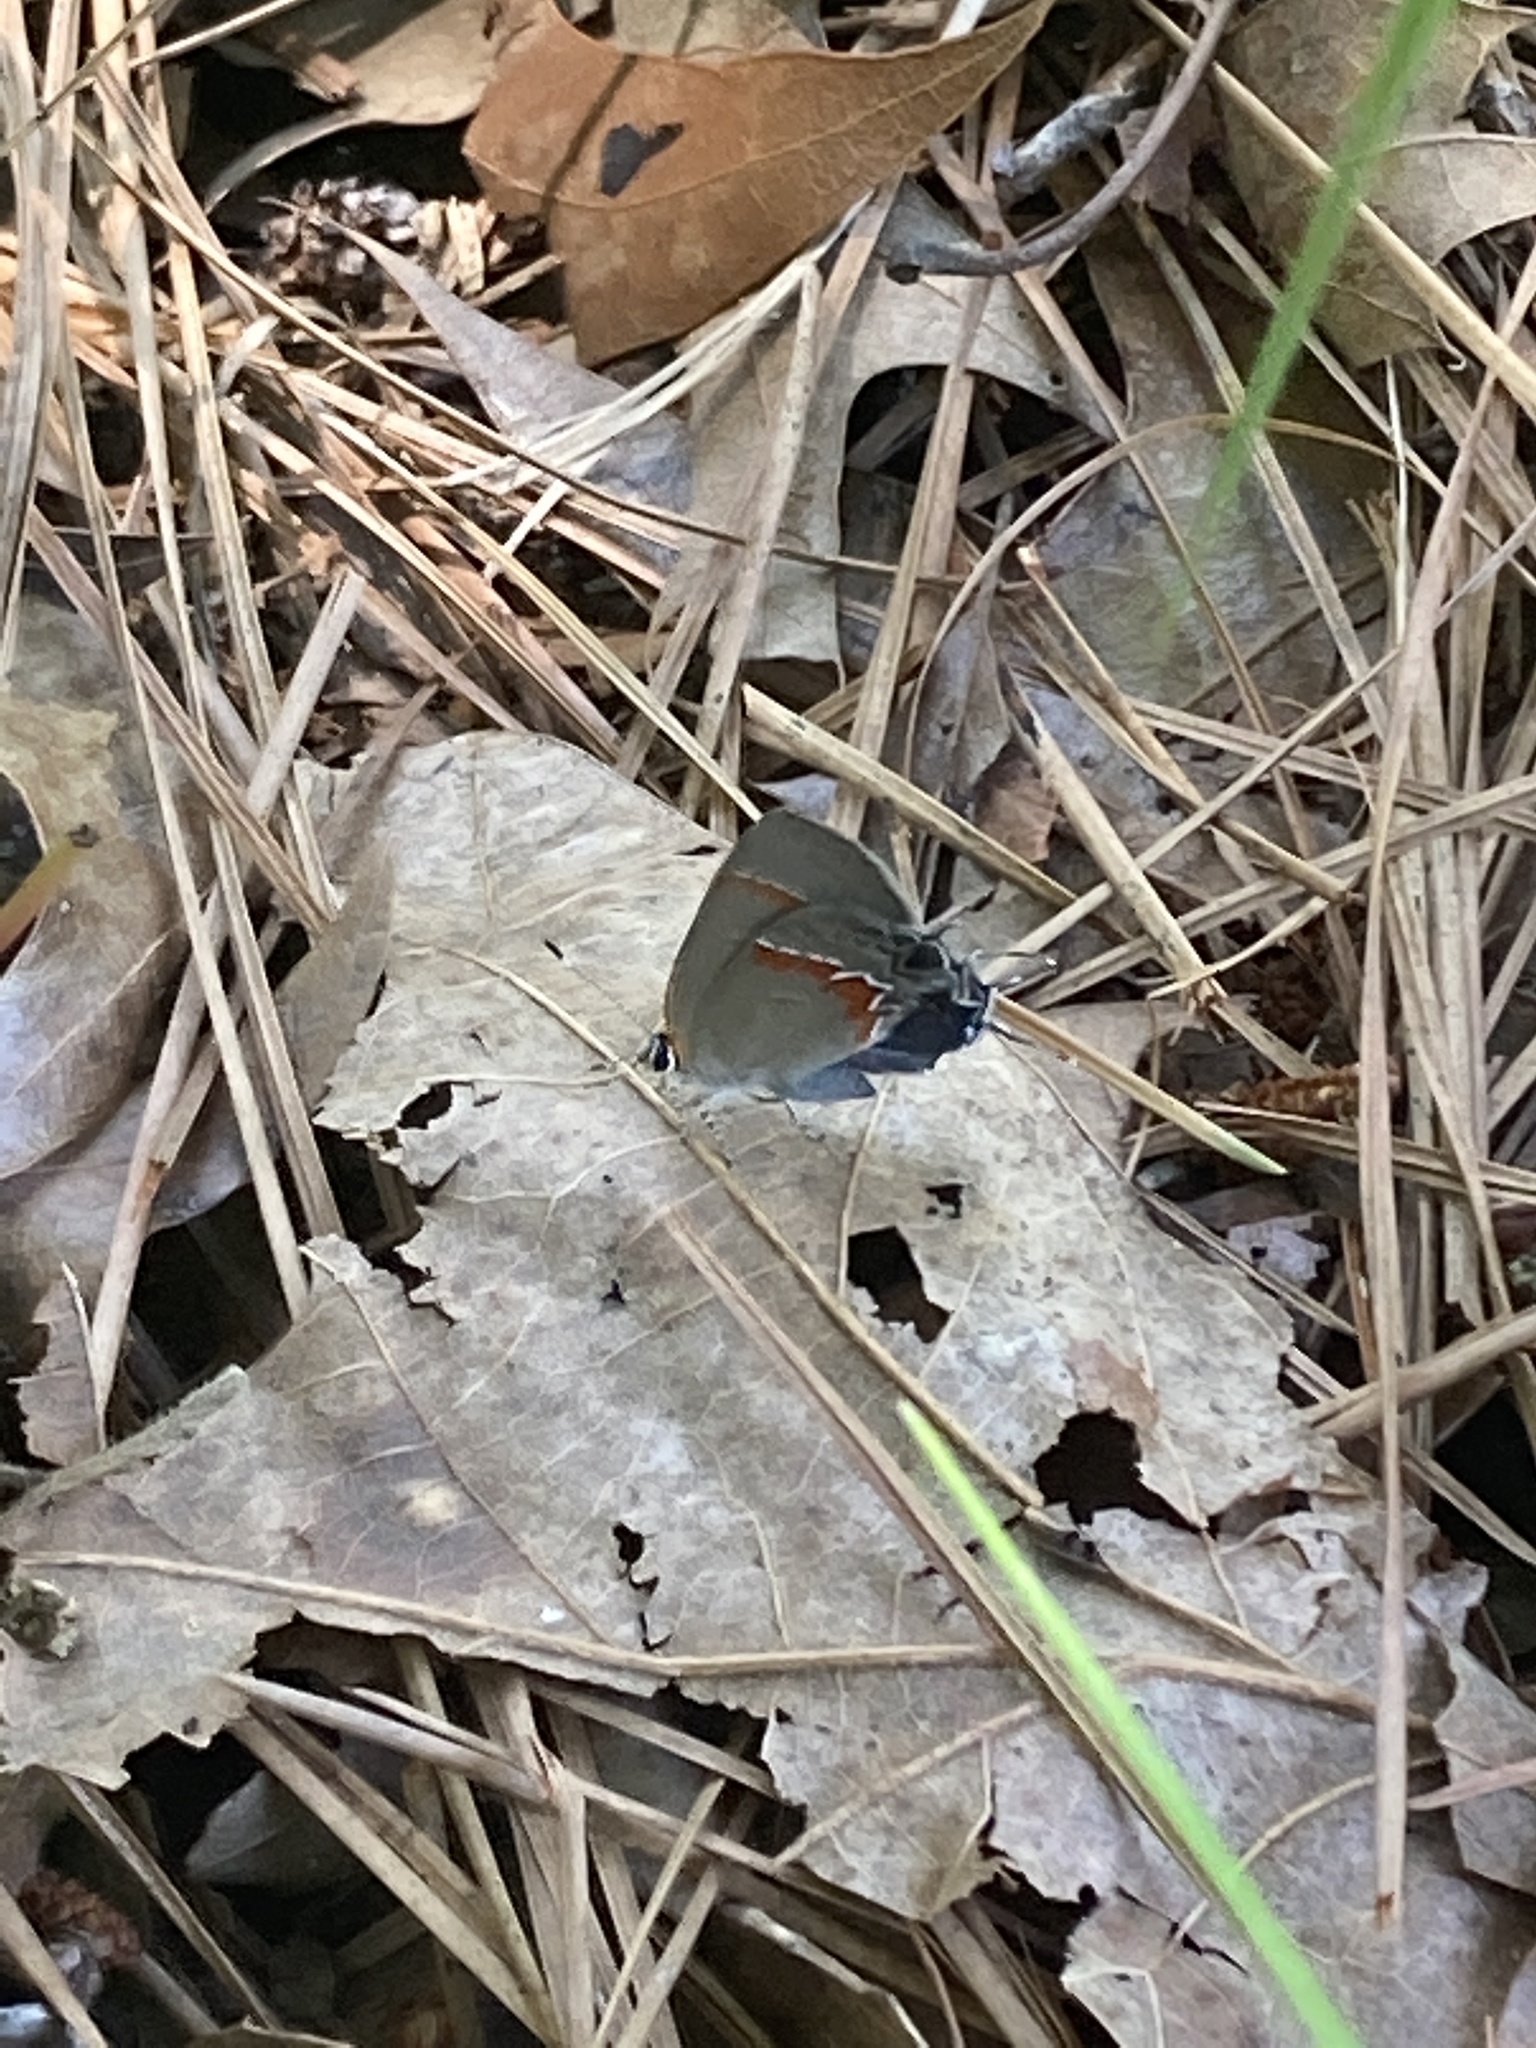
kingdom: Animalia
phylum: Arthropoda
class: Insecta
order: Lepidoptera
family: Lycaenidae
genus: Calycopis
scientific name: Calycopis cecrops
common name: Red-banded hairstreak
